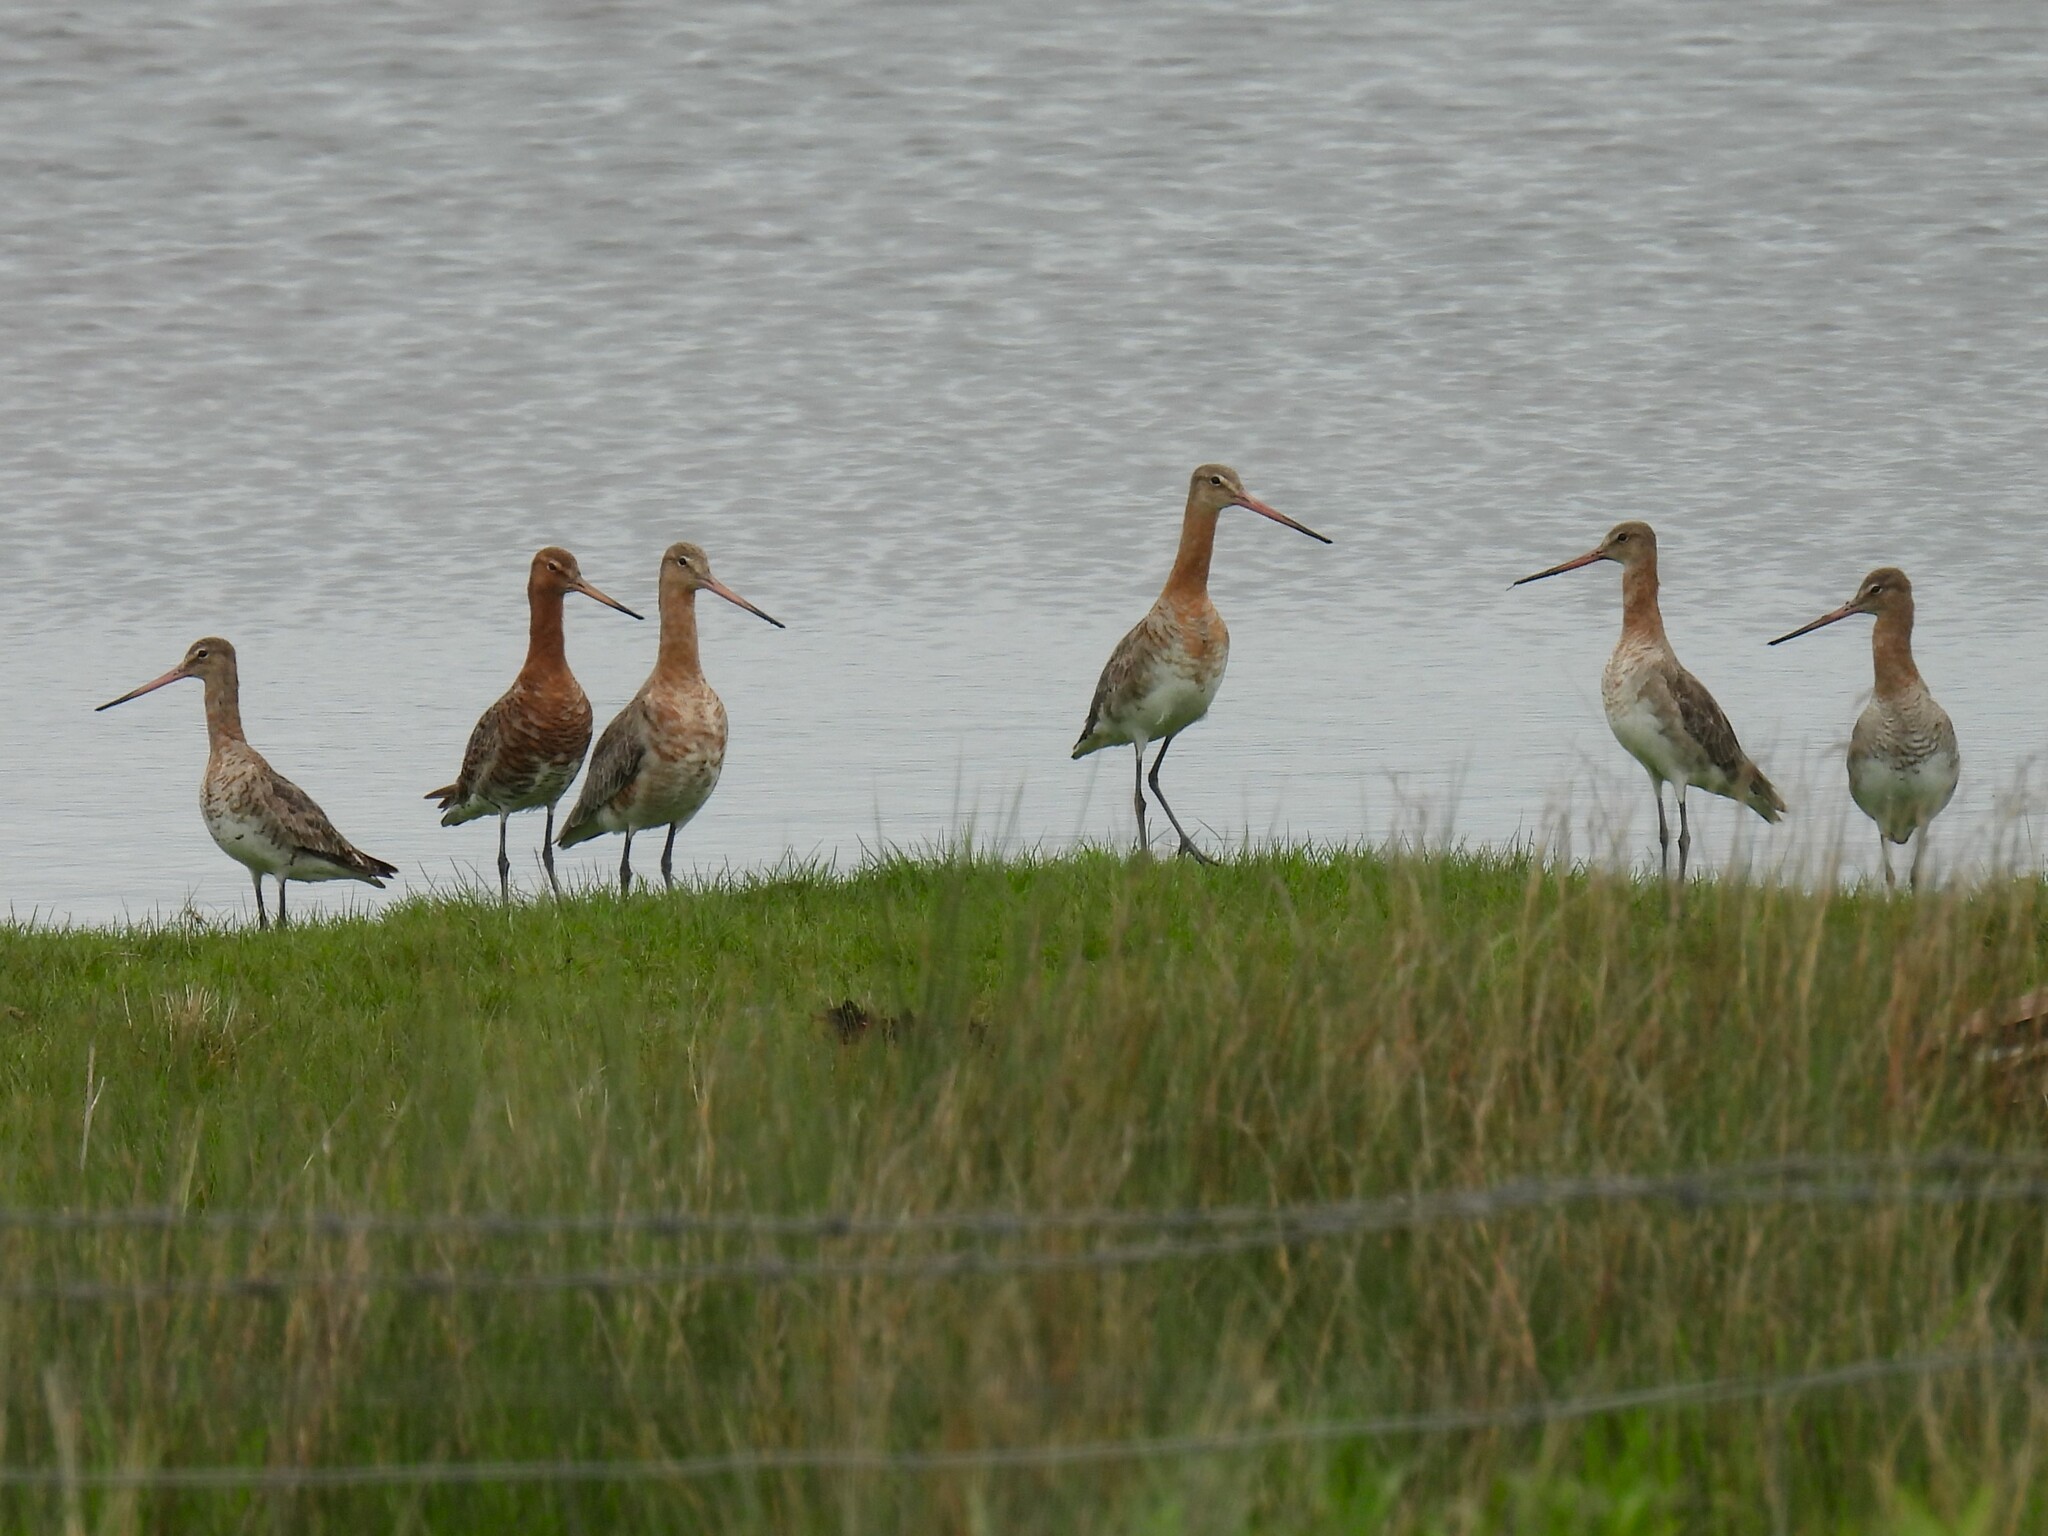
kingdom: Animalia
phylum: Chordata
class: Aves
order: Charadriiformes
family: Scolopacidae
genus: Limosa
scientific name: Limosa limosa
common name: Black-tailed godwit
